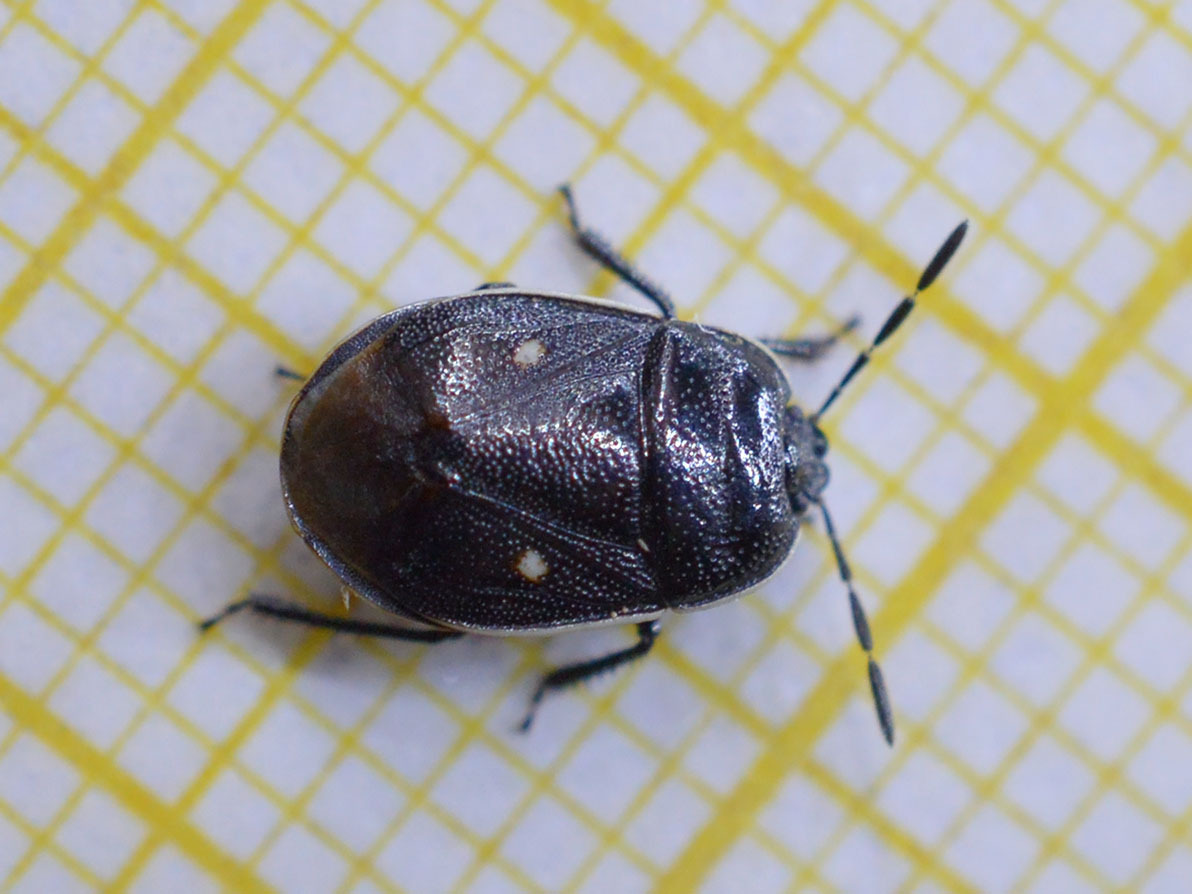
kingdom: Animalia
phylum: Arthropoda
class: Insecta
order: Hemiptera
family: Cydnidae
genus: Adomerus
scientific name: Adomerus biguttatus
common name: Cow wheat shieldbug
